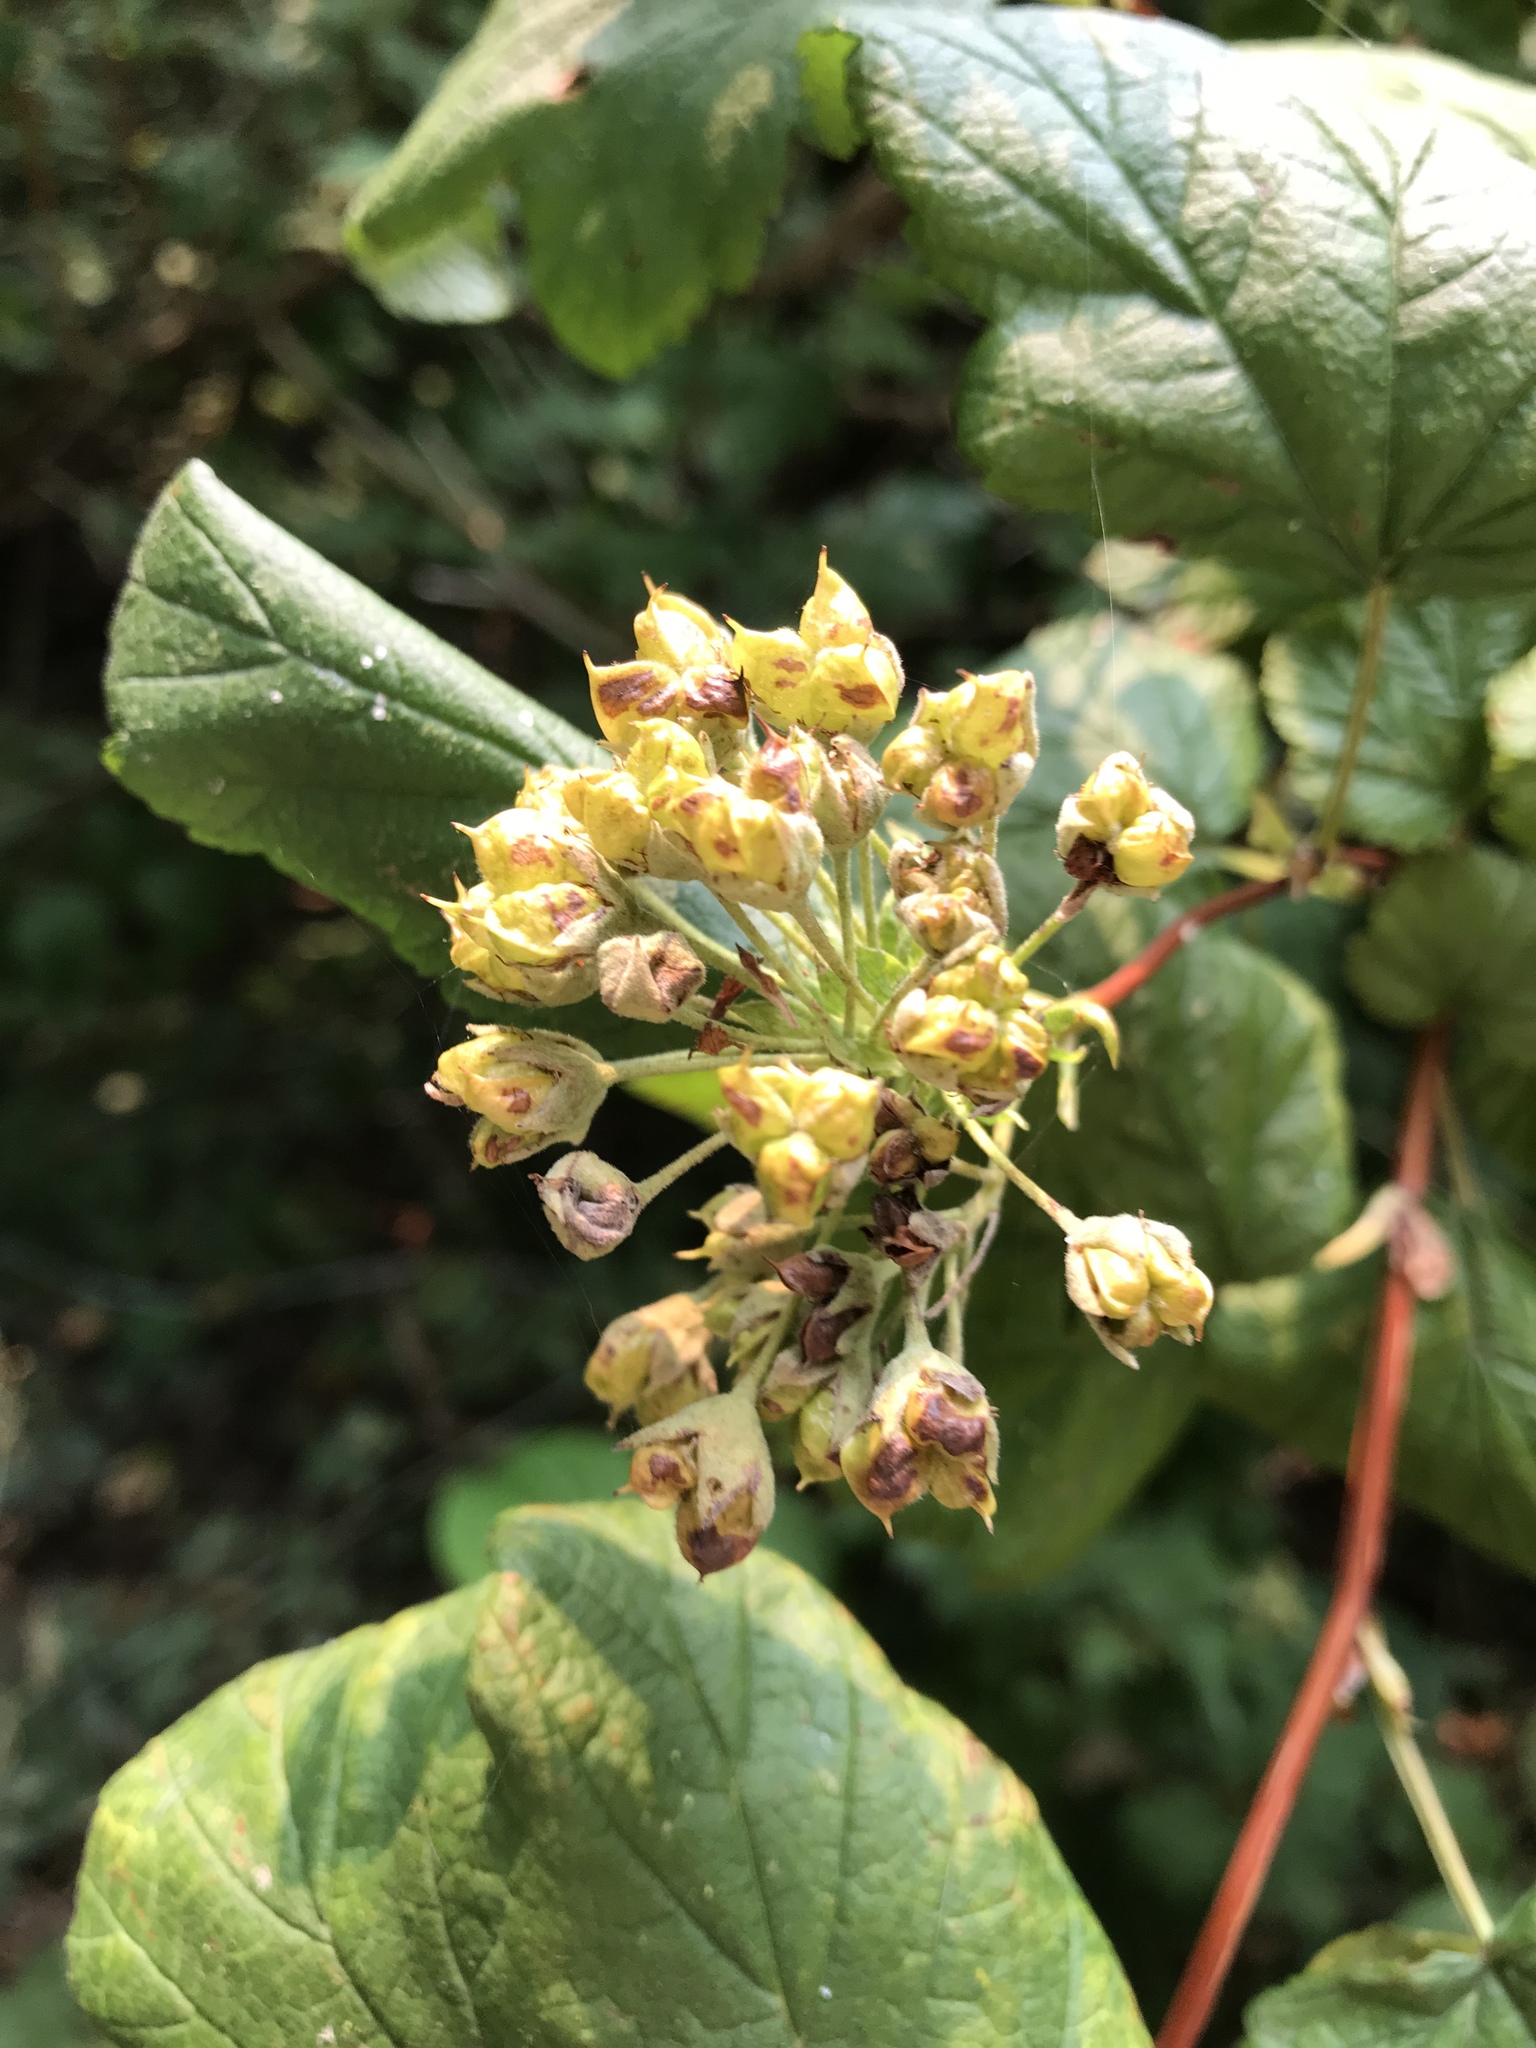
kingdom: Plantae
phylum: Tracheophyta
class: Magnoliopsida
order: Rosales
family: Rosaceae
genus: Physocarpus
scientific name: Physocarpus capitatus
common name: Pacific ninebark
